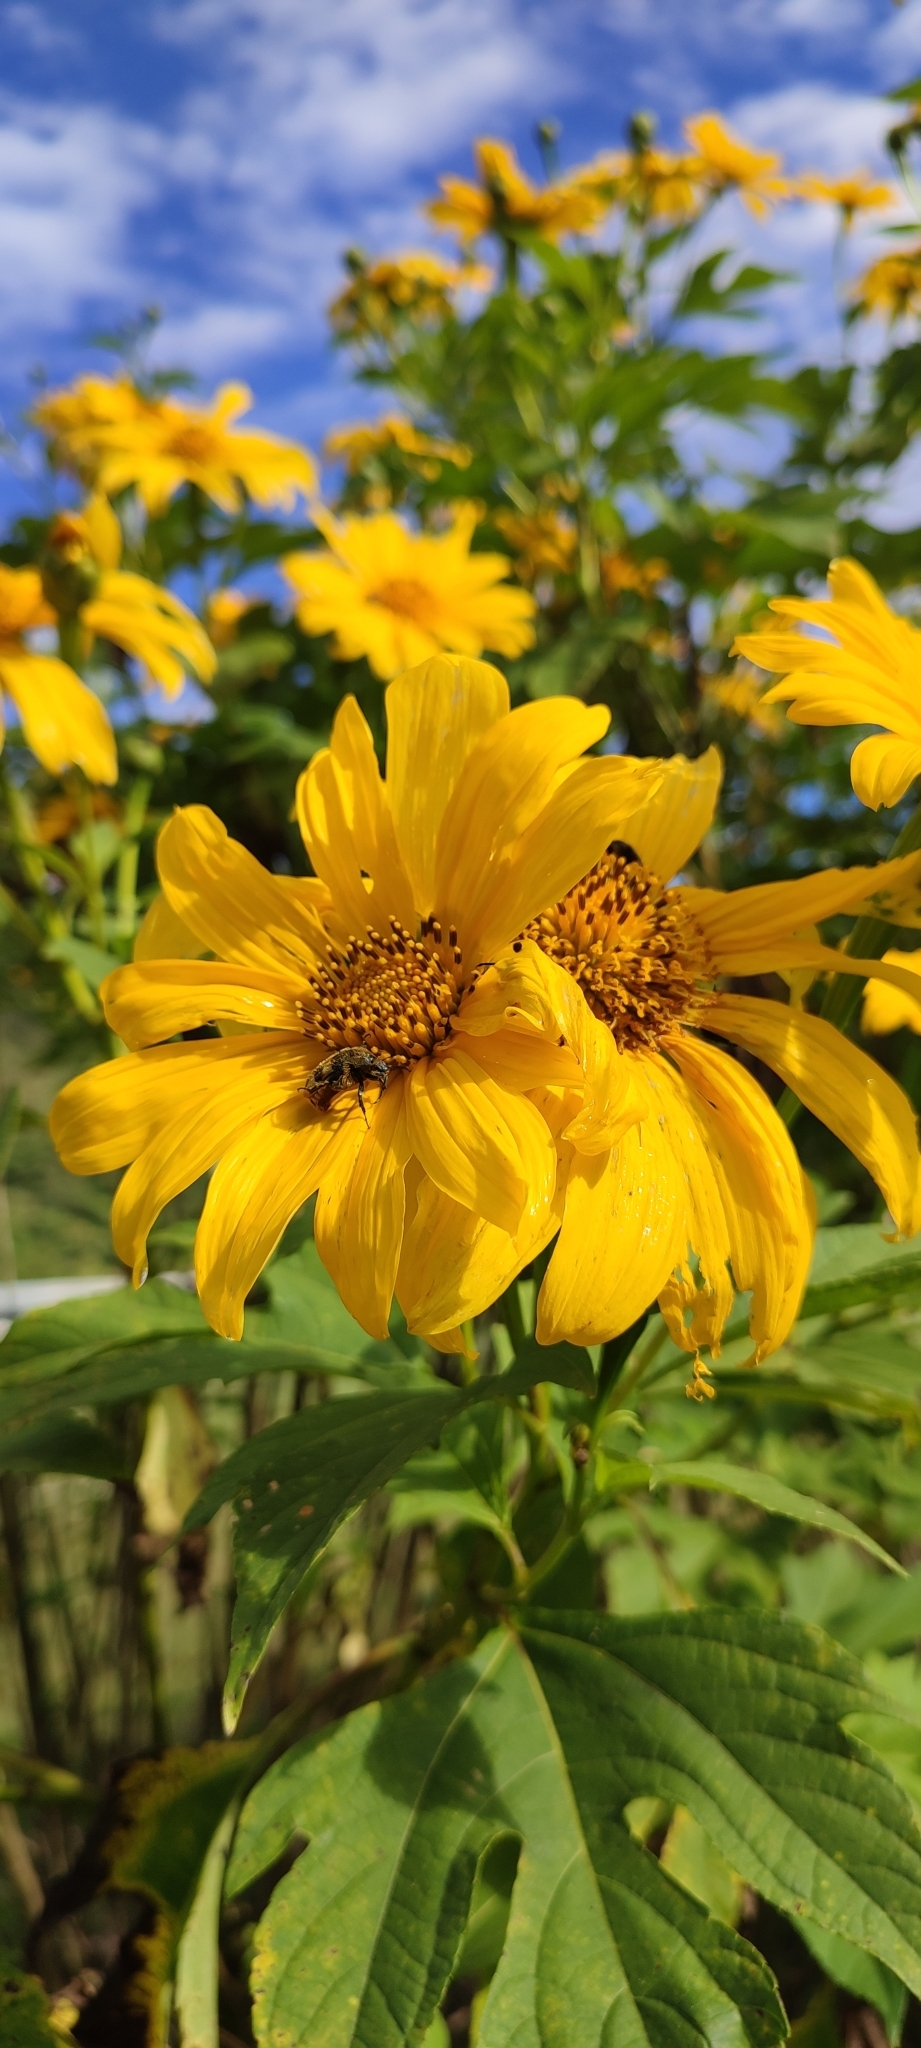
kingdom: Plantae
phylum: Tracheophyta
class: Magnoliopsida
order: Asterales
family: Asteraceae
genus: Tithonia
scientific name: Tithonia diversifolia
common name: Tree marigold
